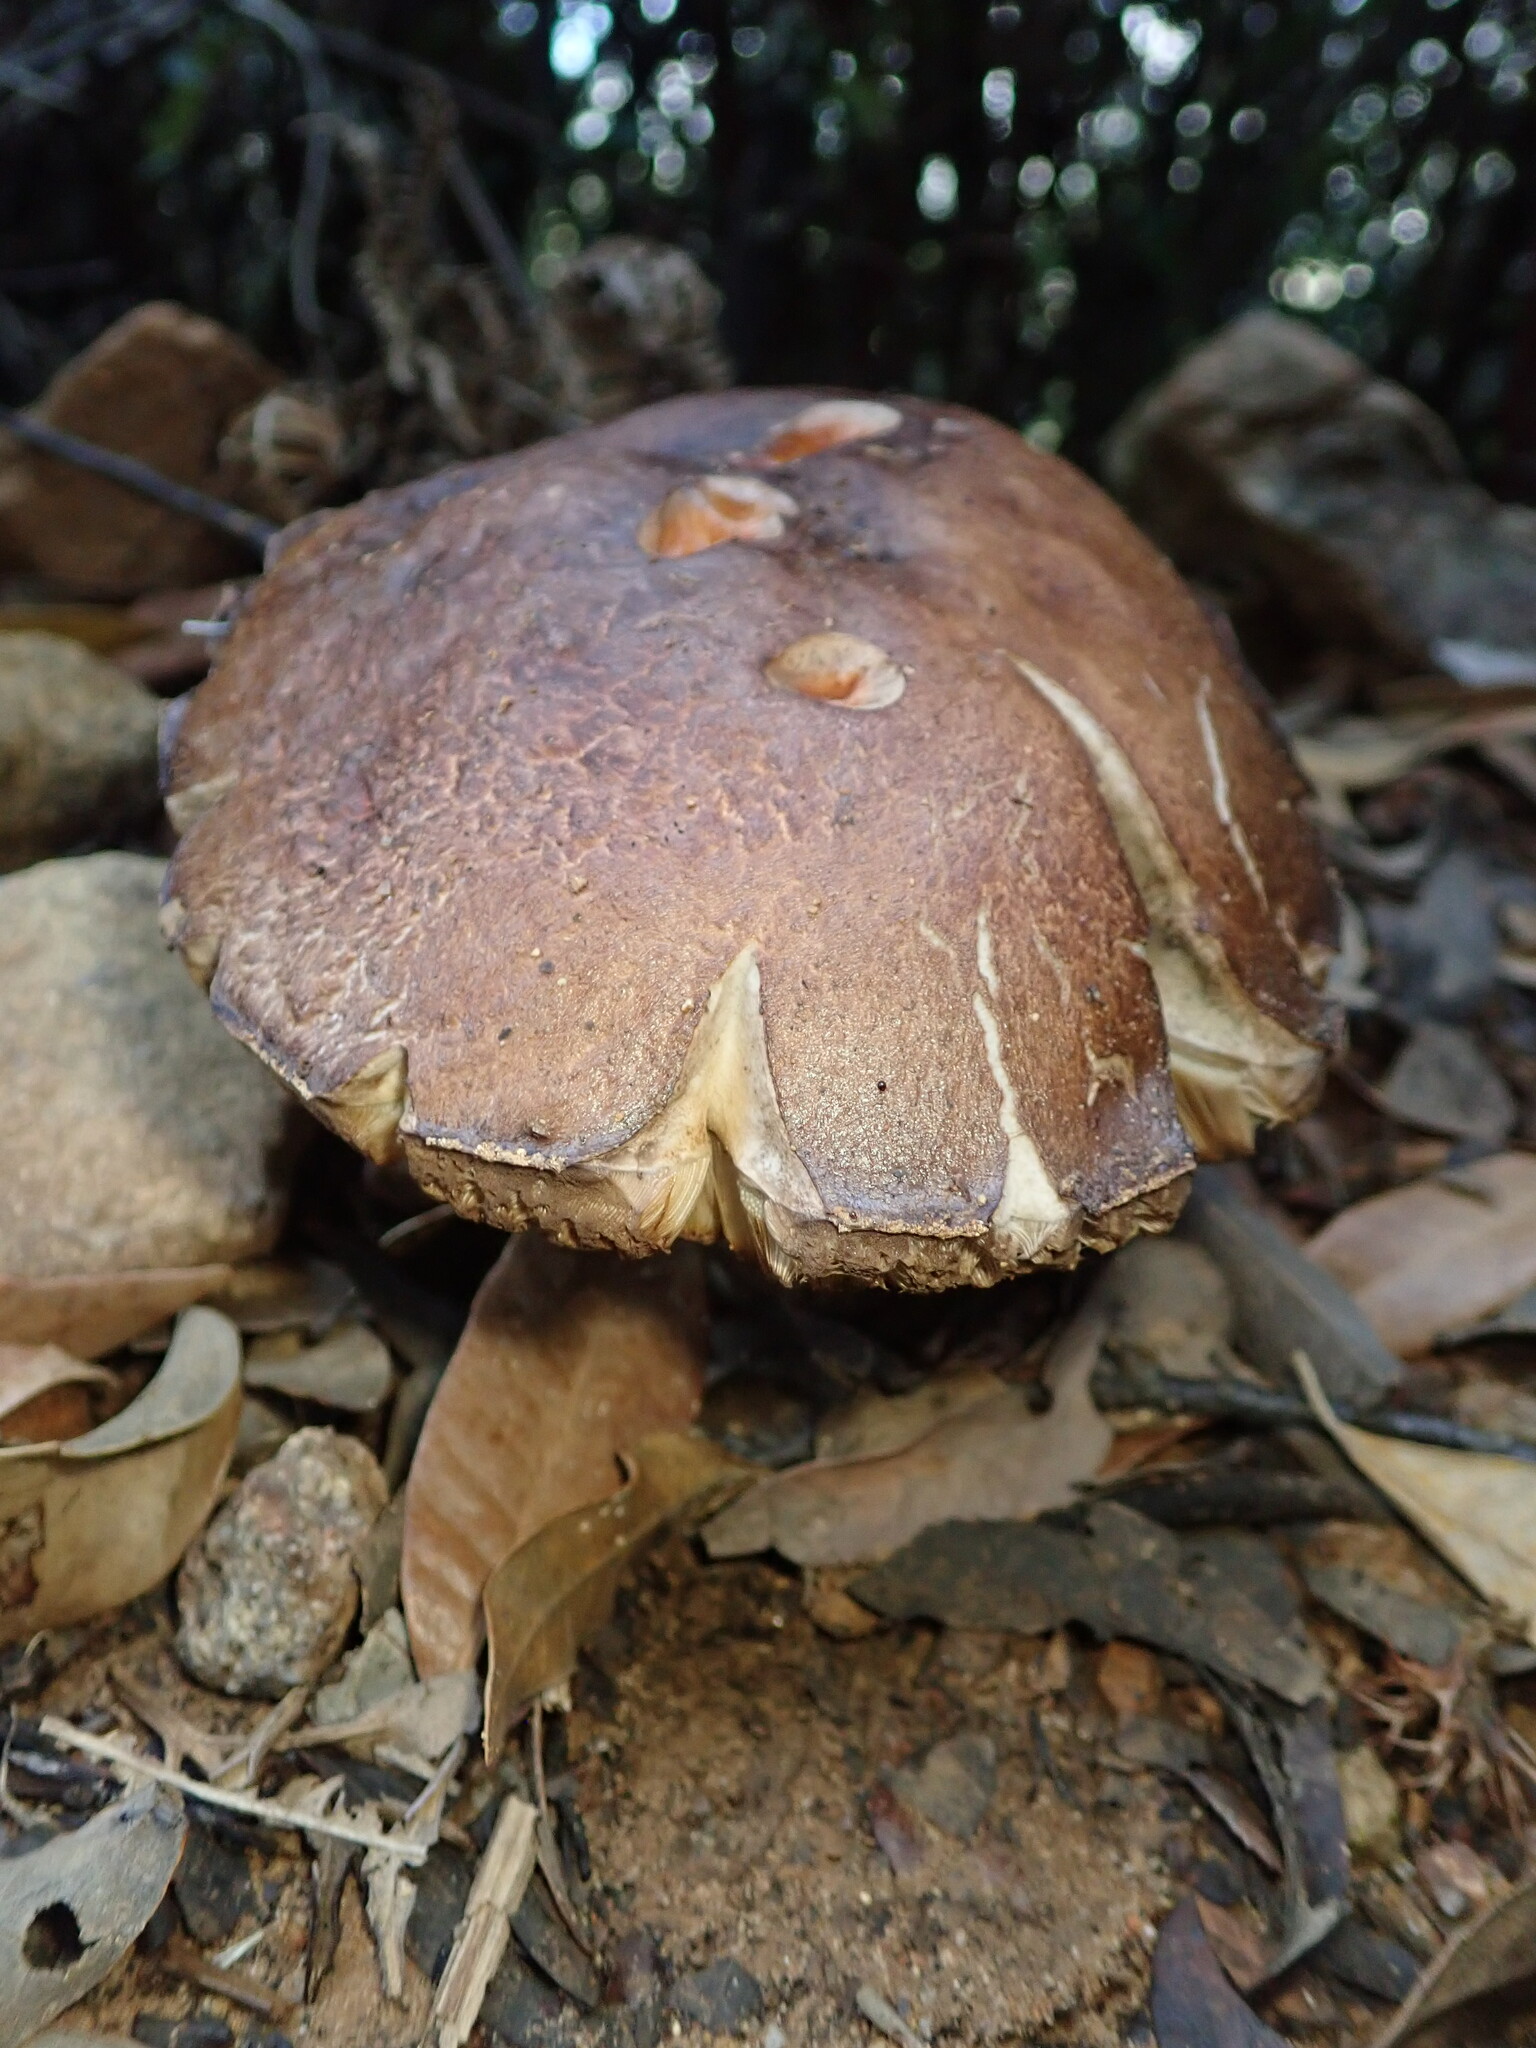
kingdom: Fungi
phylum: Basidiomycota
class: Agaricomycetes
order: Boletales
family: Boletaceae
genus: Leccinum
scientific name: Leccinum manzanitae
